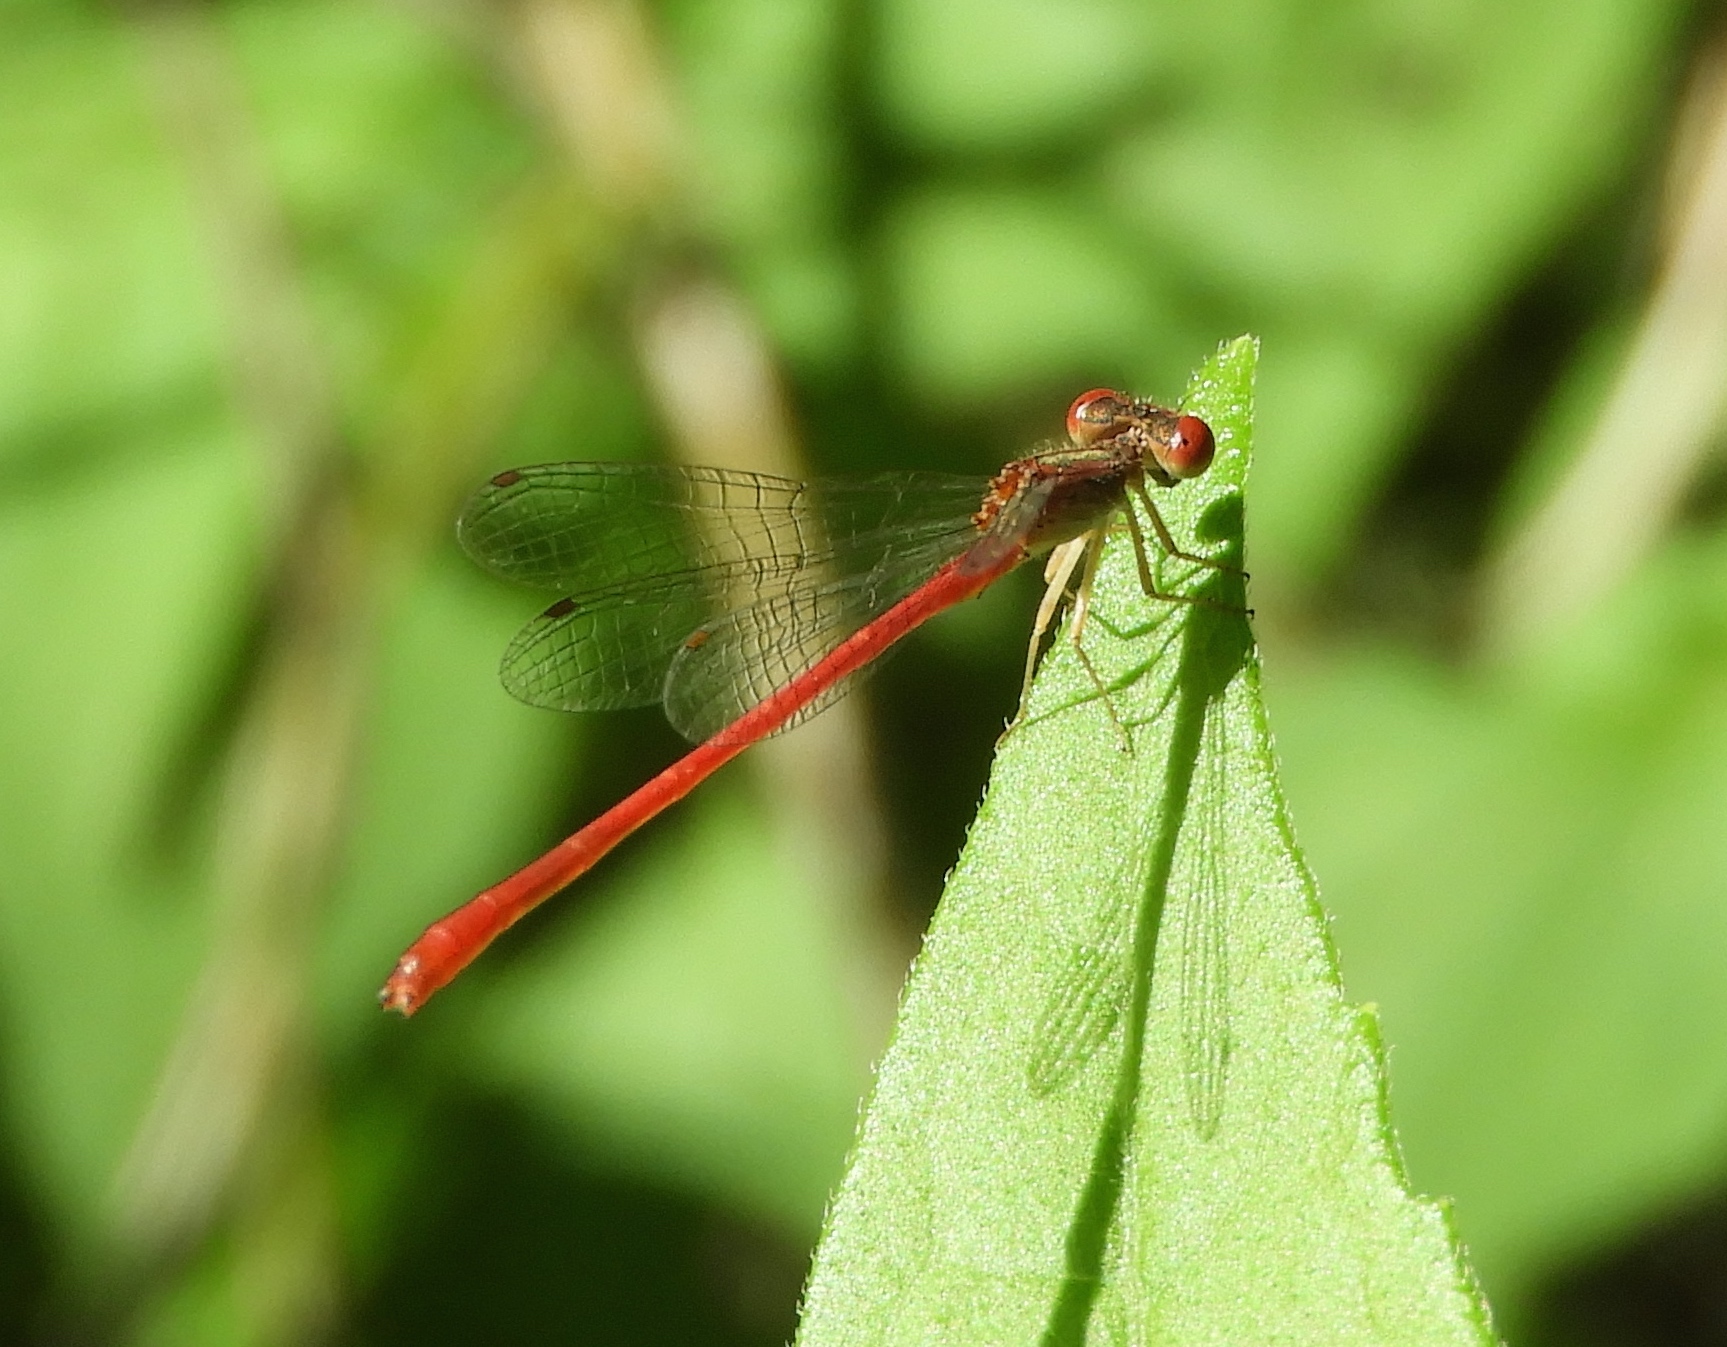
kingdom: Animalia
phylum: Arthropoda
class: Insecta
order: Odonata
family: Coenagrionidae
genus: Telebasis
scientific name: Telebasis salva
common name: Desert firetail
